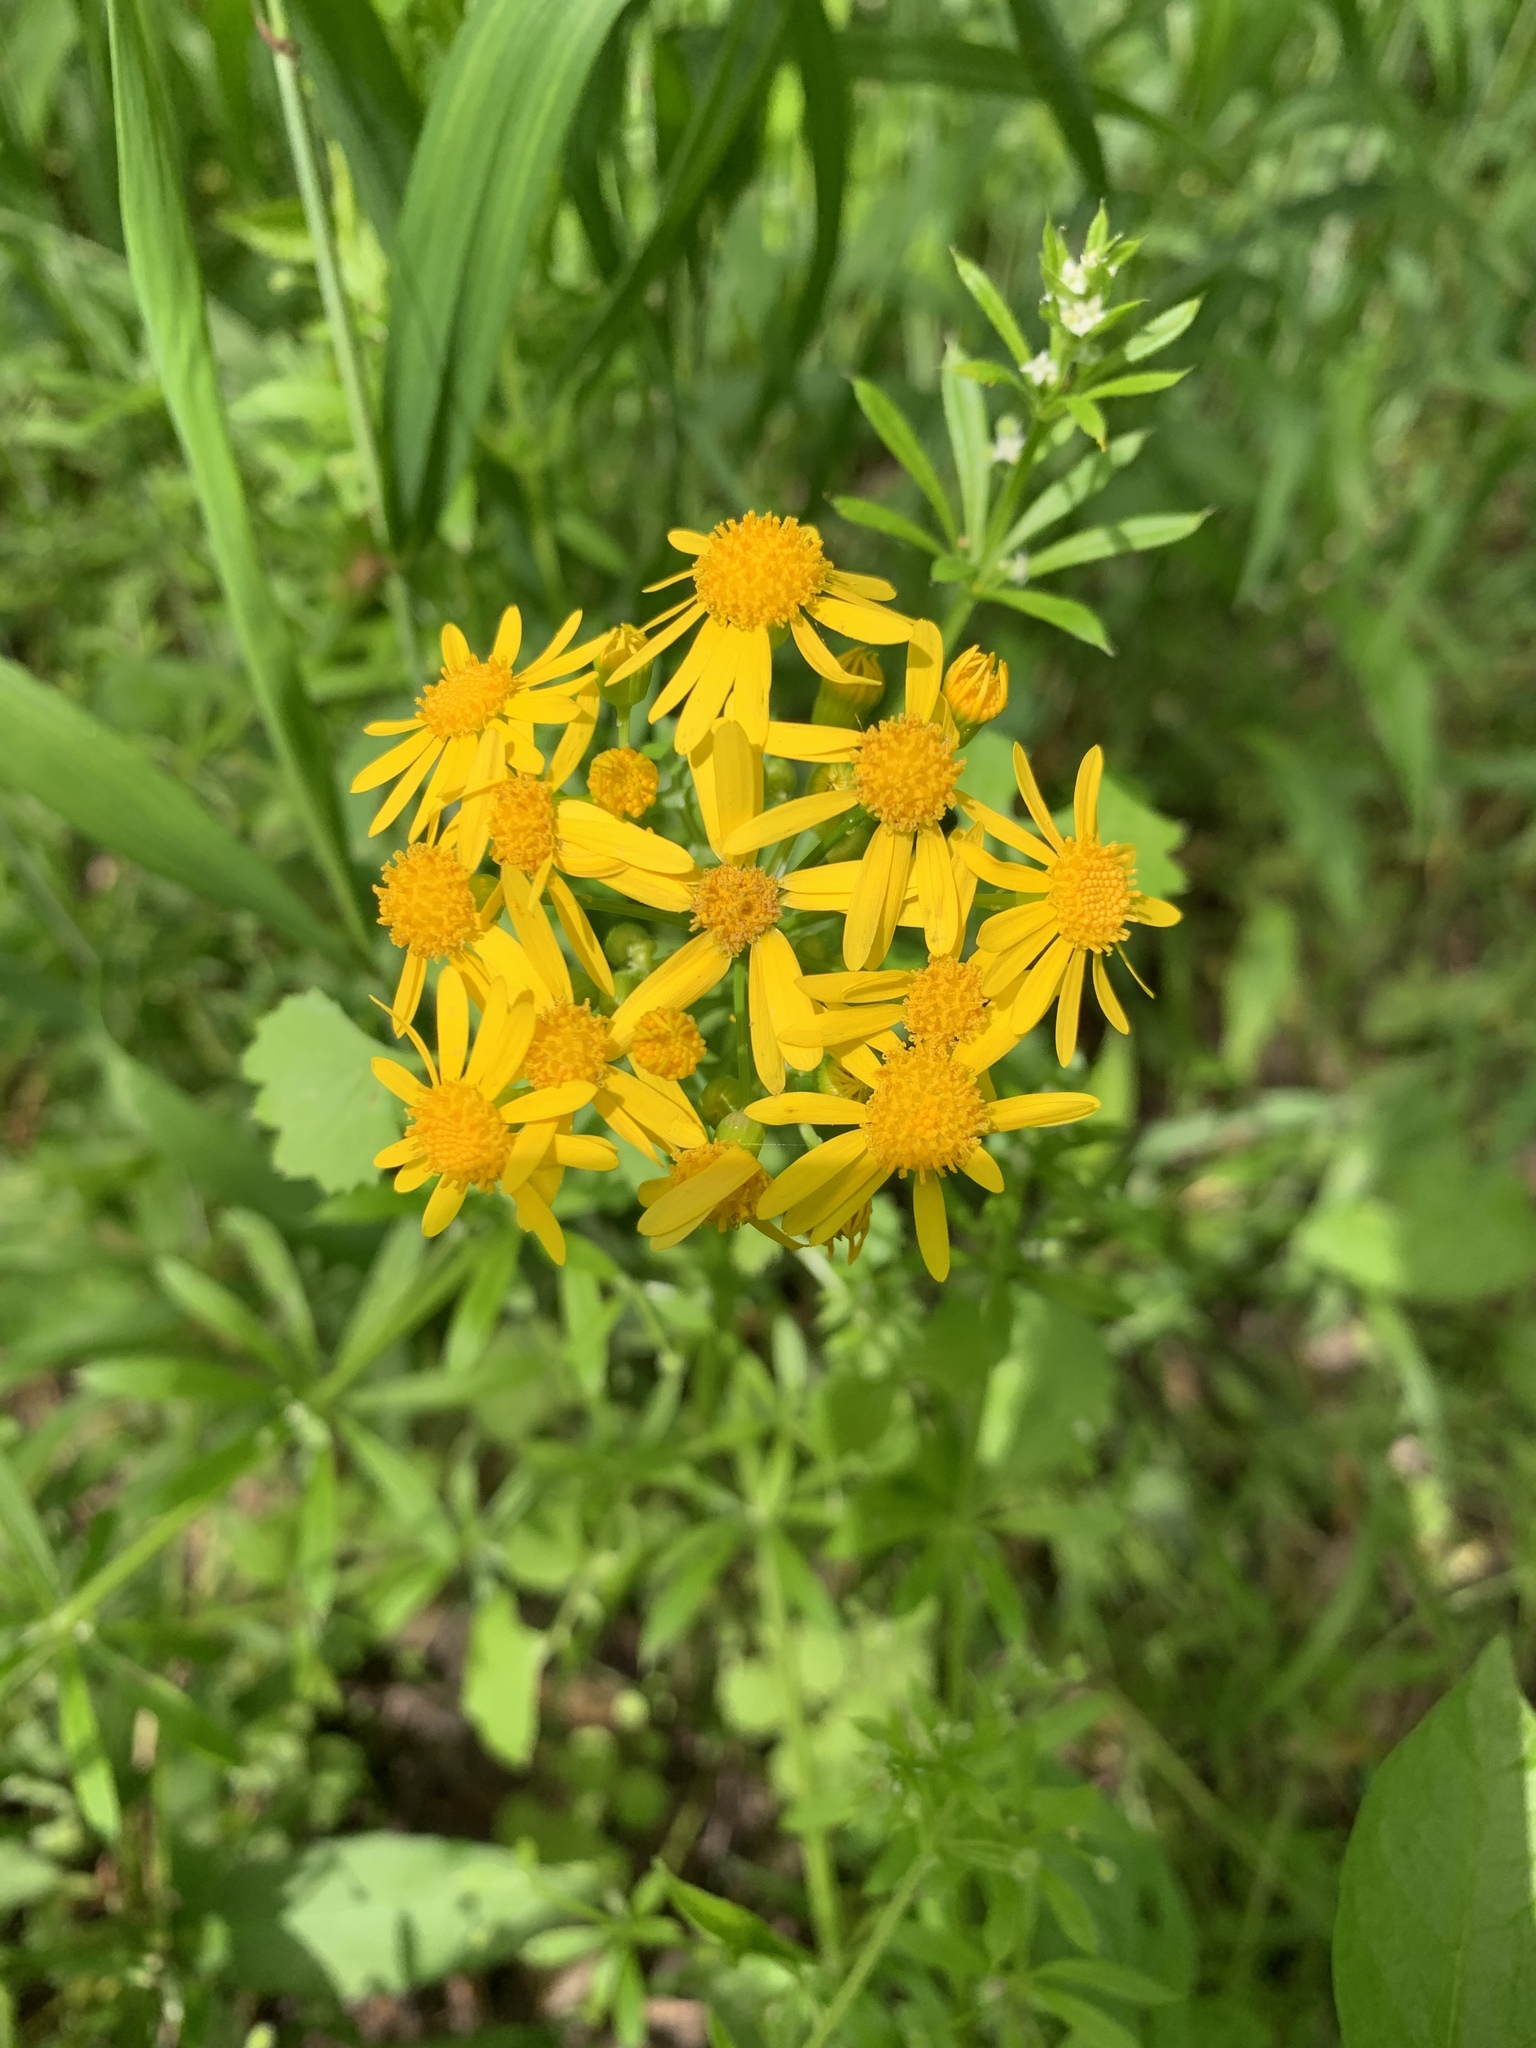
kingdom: Plantae
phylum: Tracheophyta
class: Magnoliopsida
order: Asterales
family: Asteraceae
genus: Packera
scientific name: Packera glabella
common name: Butterweed
